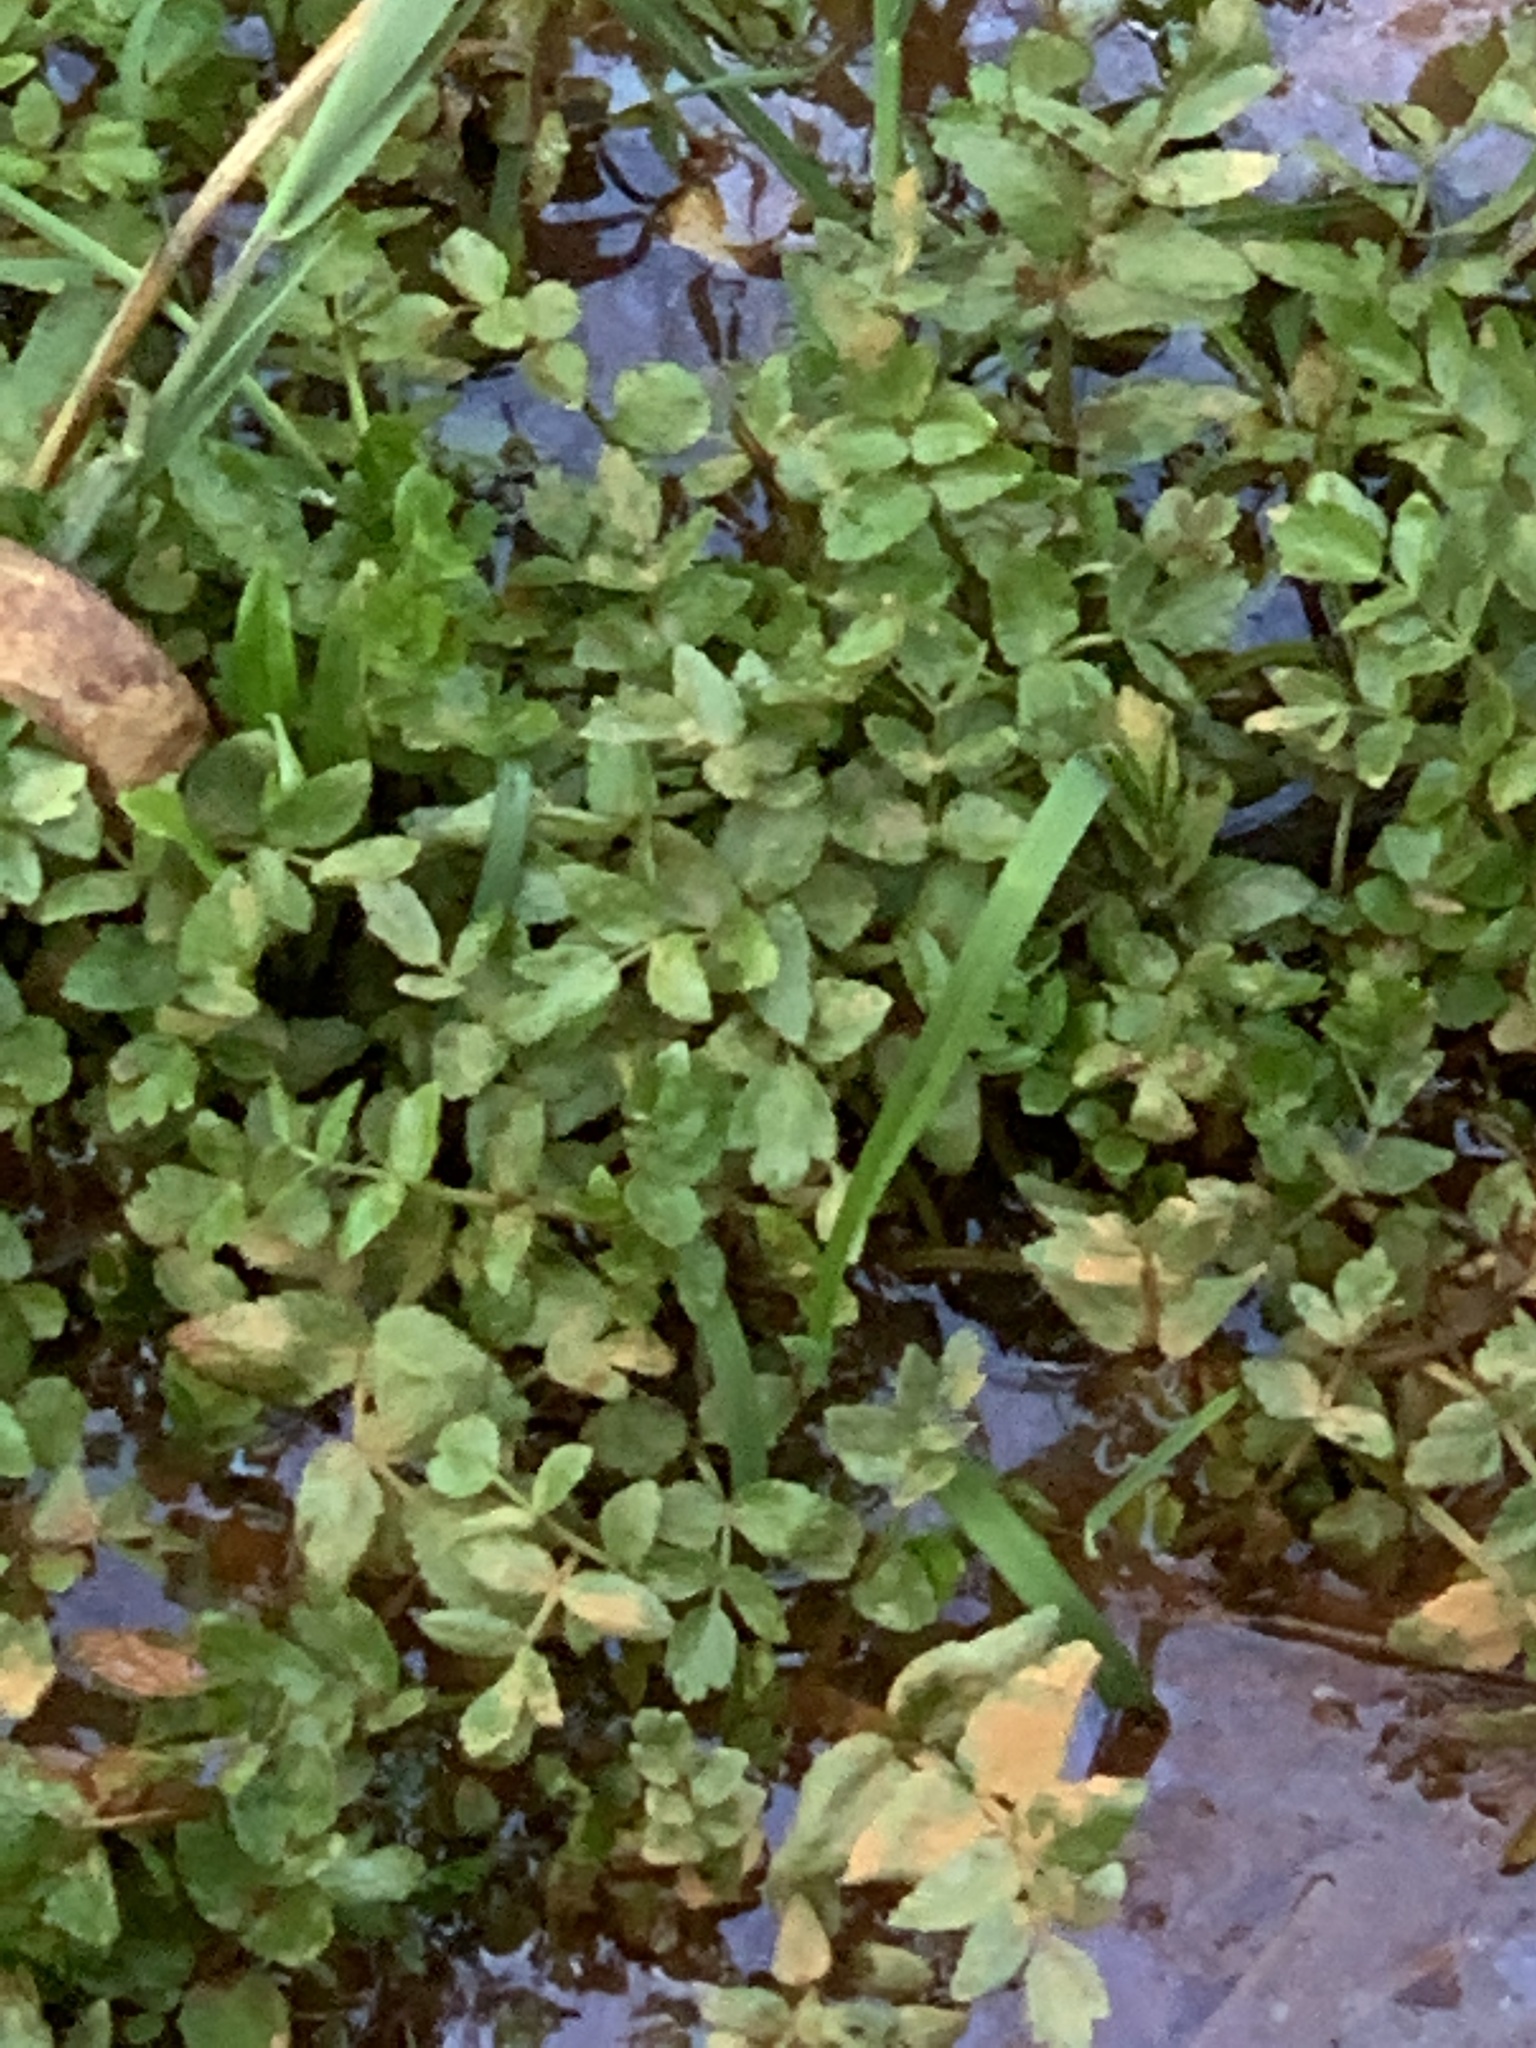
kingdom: Plantae
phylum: Tracheophyta
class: Magnoliopsida
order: Apiales
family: Apiaceae
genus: Helosciadium
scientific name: Helosciadium nodiflorum
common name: Fool's-watercress
